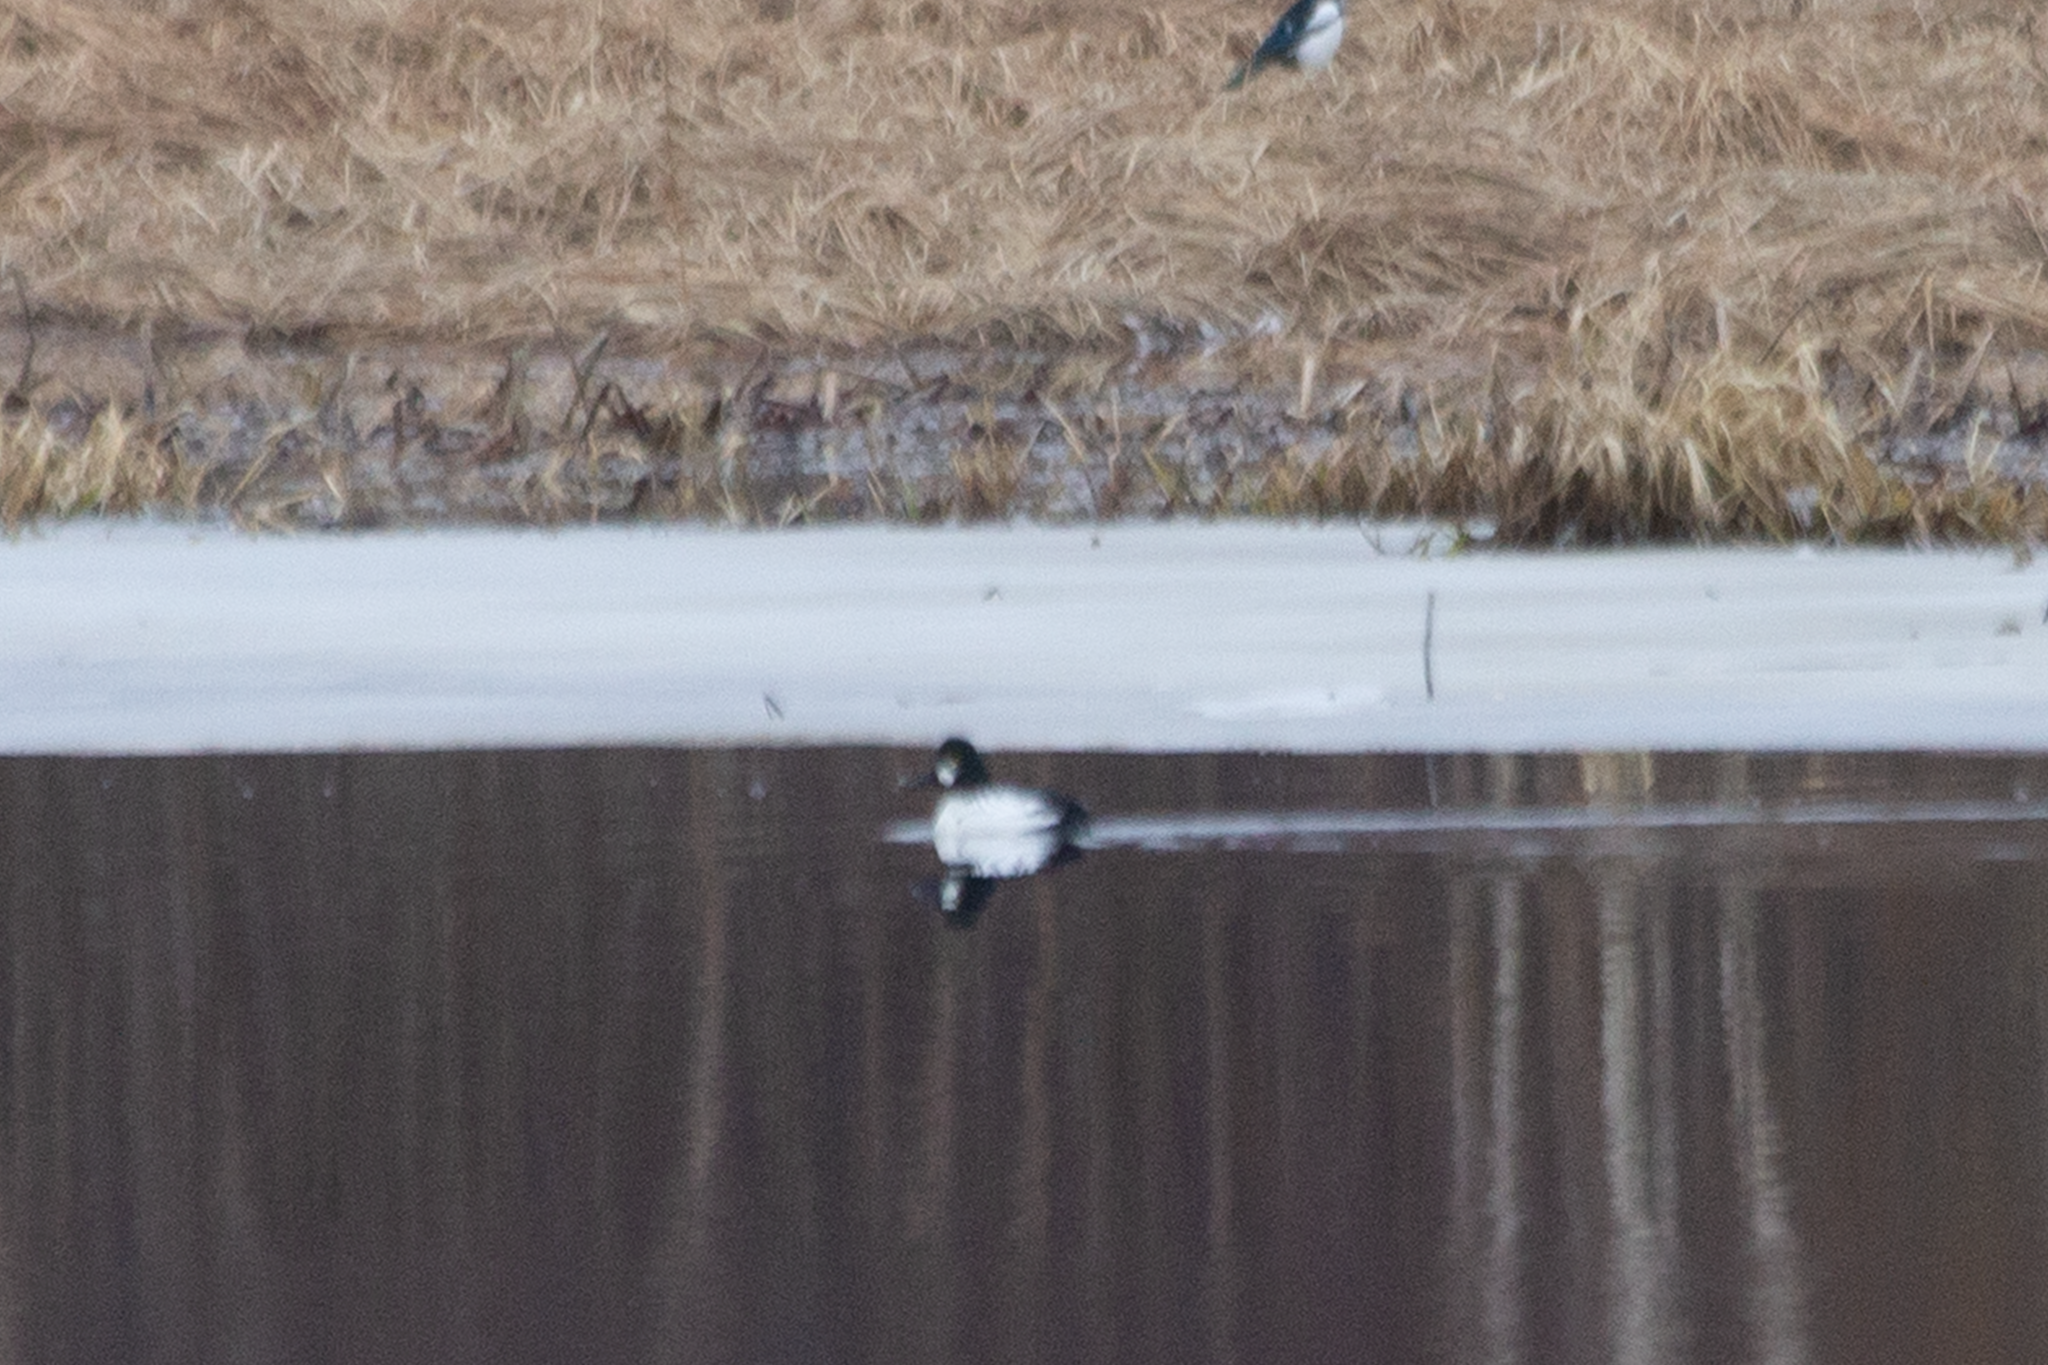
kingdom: Animalia
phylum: Chordata
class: Aves
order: Anseriformes
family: Anatidae
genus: Bucephala
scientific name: Bucephala clangula
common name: Common goldeneye
